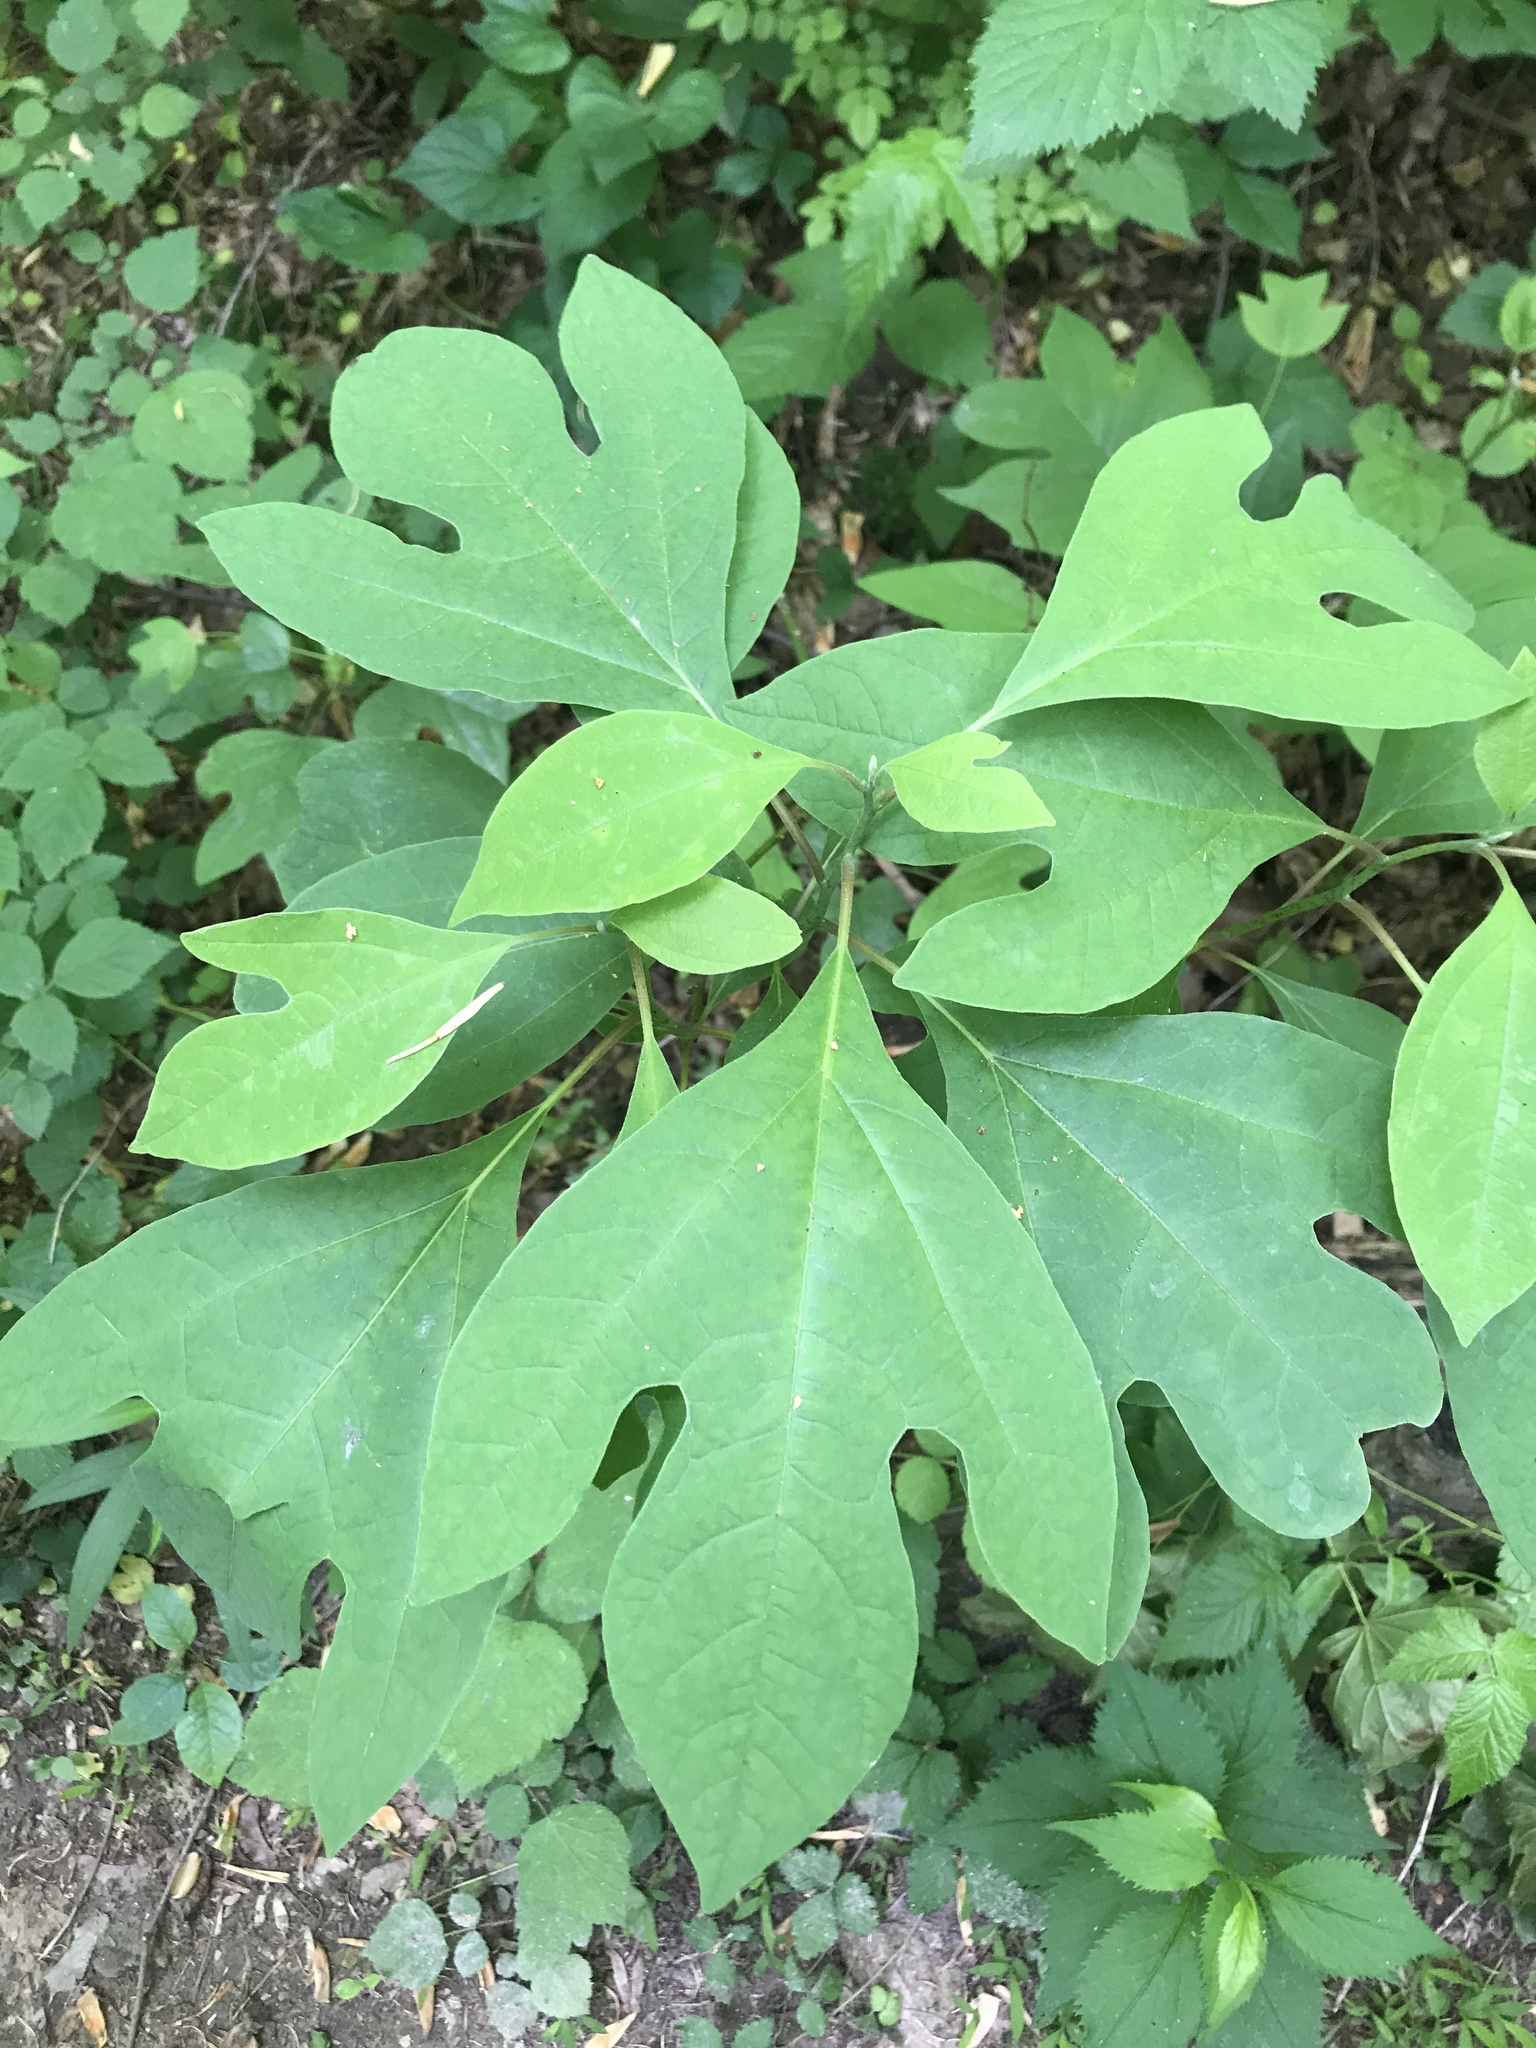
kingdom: Plantae
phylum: Tracheophyta
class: Magnoliopsida
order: Laurales
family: Lauraceae
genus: Sassafras
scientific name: Sassafras albidum
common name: Sassafras
